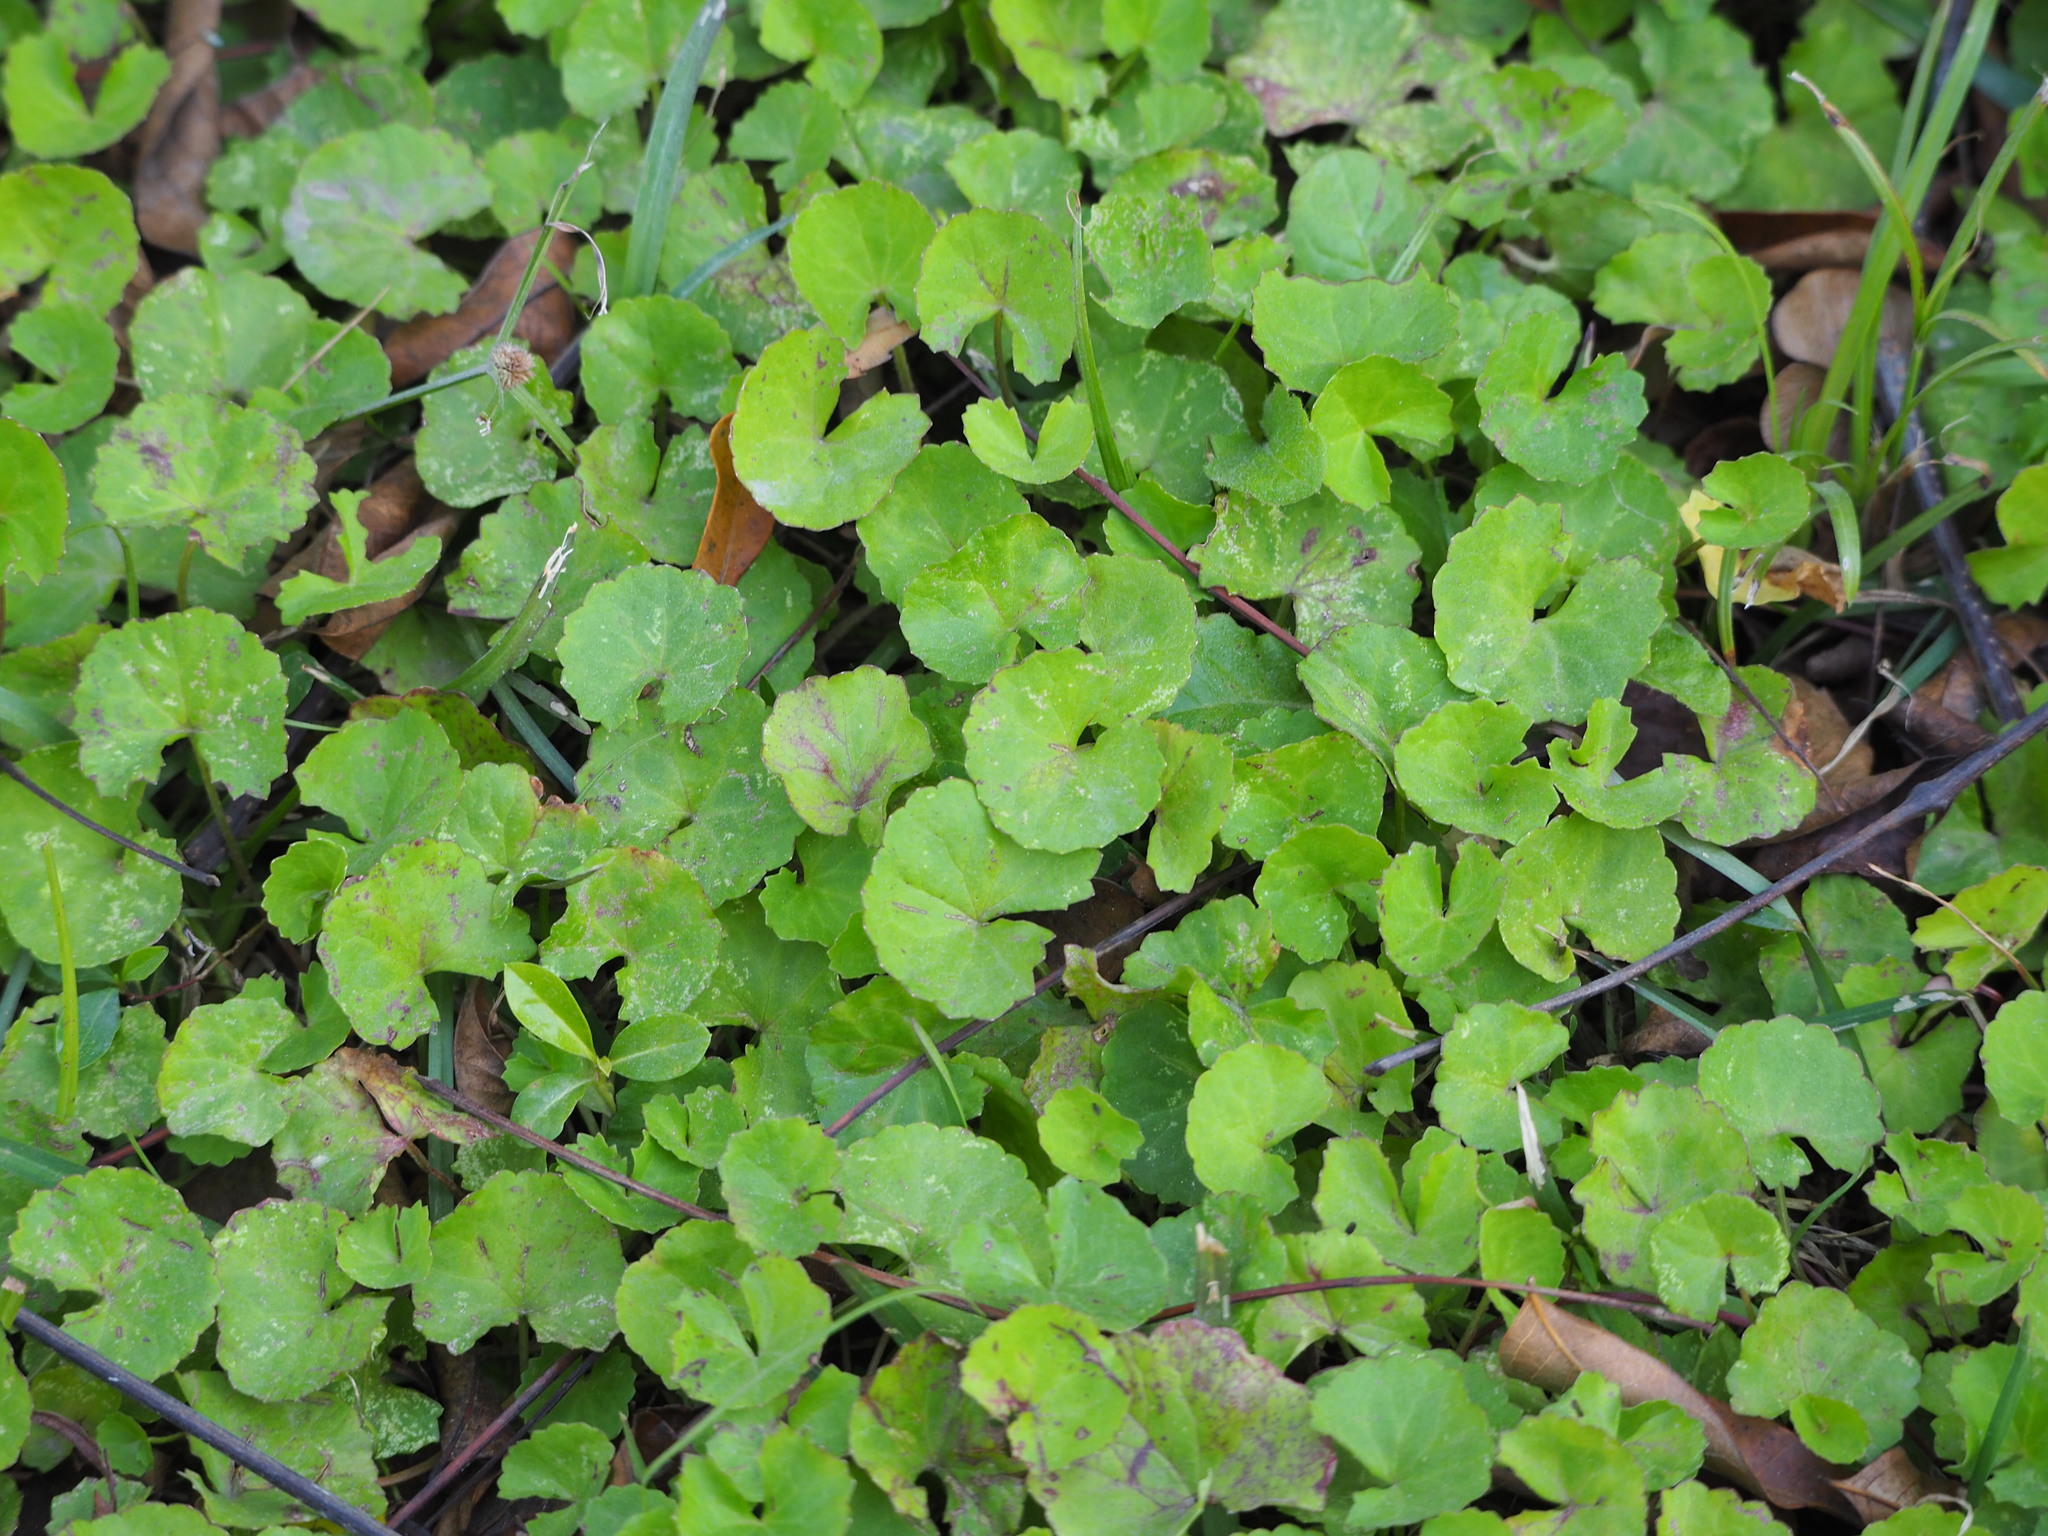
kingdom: Plantae
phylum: Tracheophyta
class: Magnoliopsida
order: Apiales
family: Apiaceae
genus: Centella
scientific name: Centella asiatica
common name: Spadeleaf
